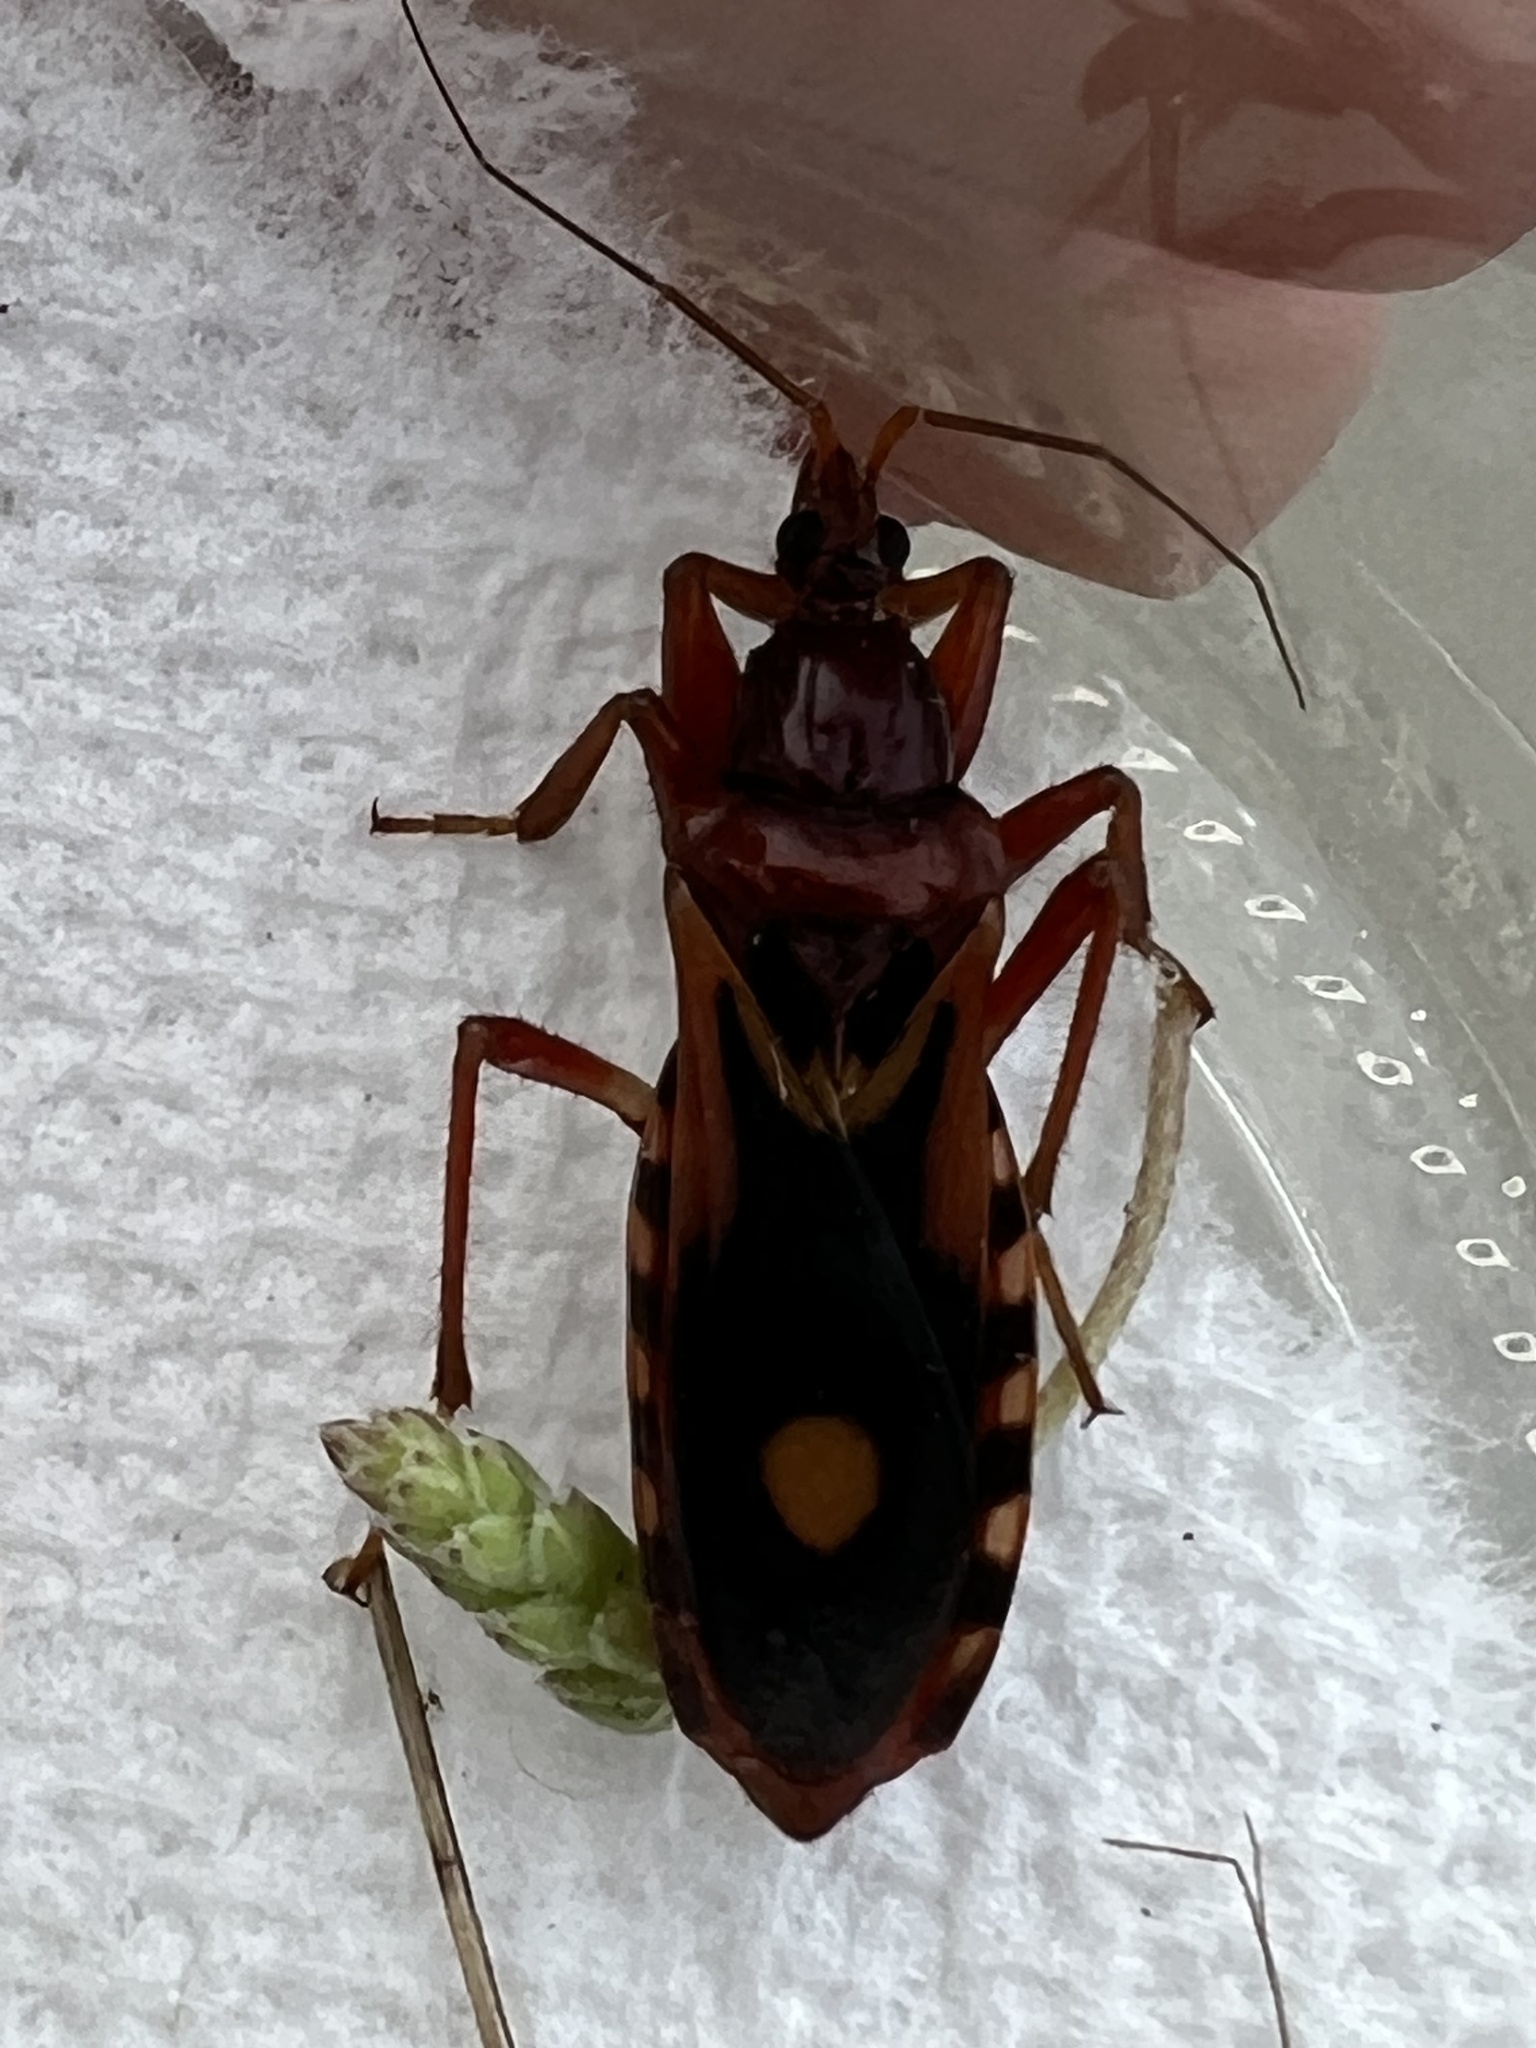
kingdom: Animalia
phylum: Arthropoda
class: Insecta
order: Hemiptera
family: Reduviidae
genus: Rasahus
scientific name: Rasahus thoracicus
